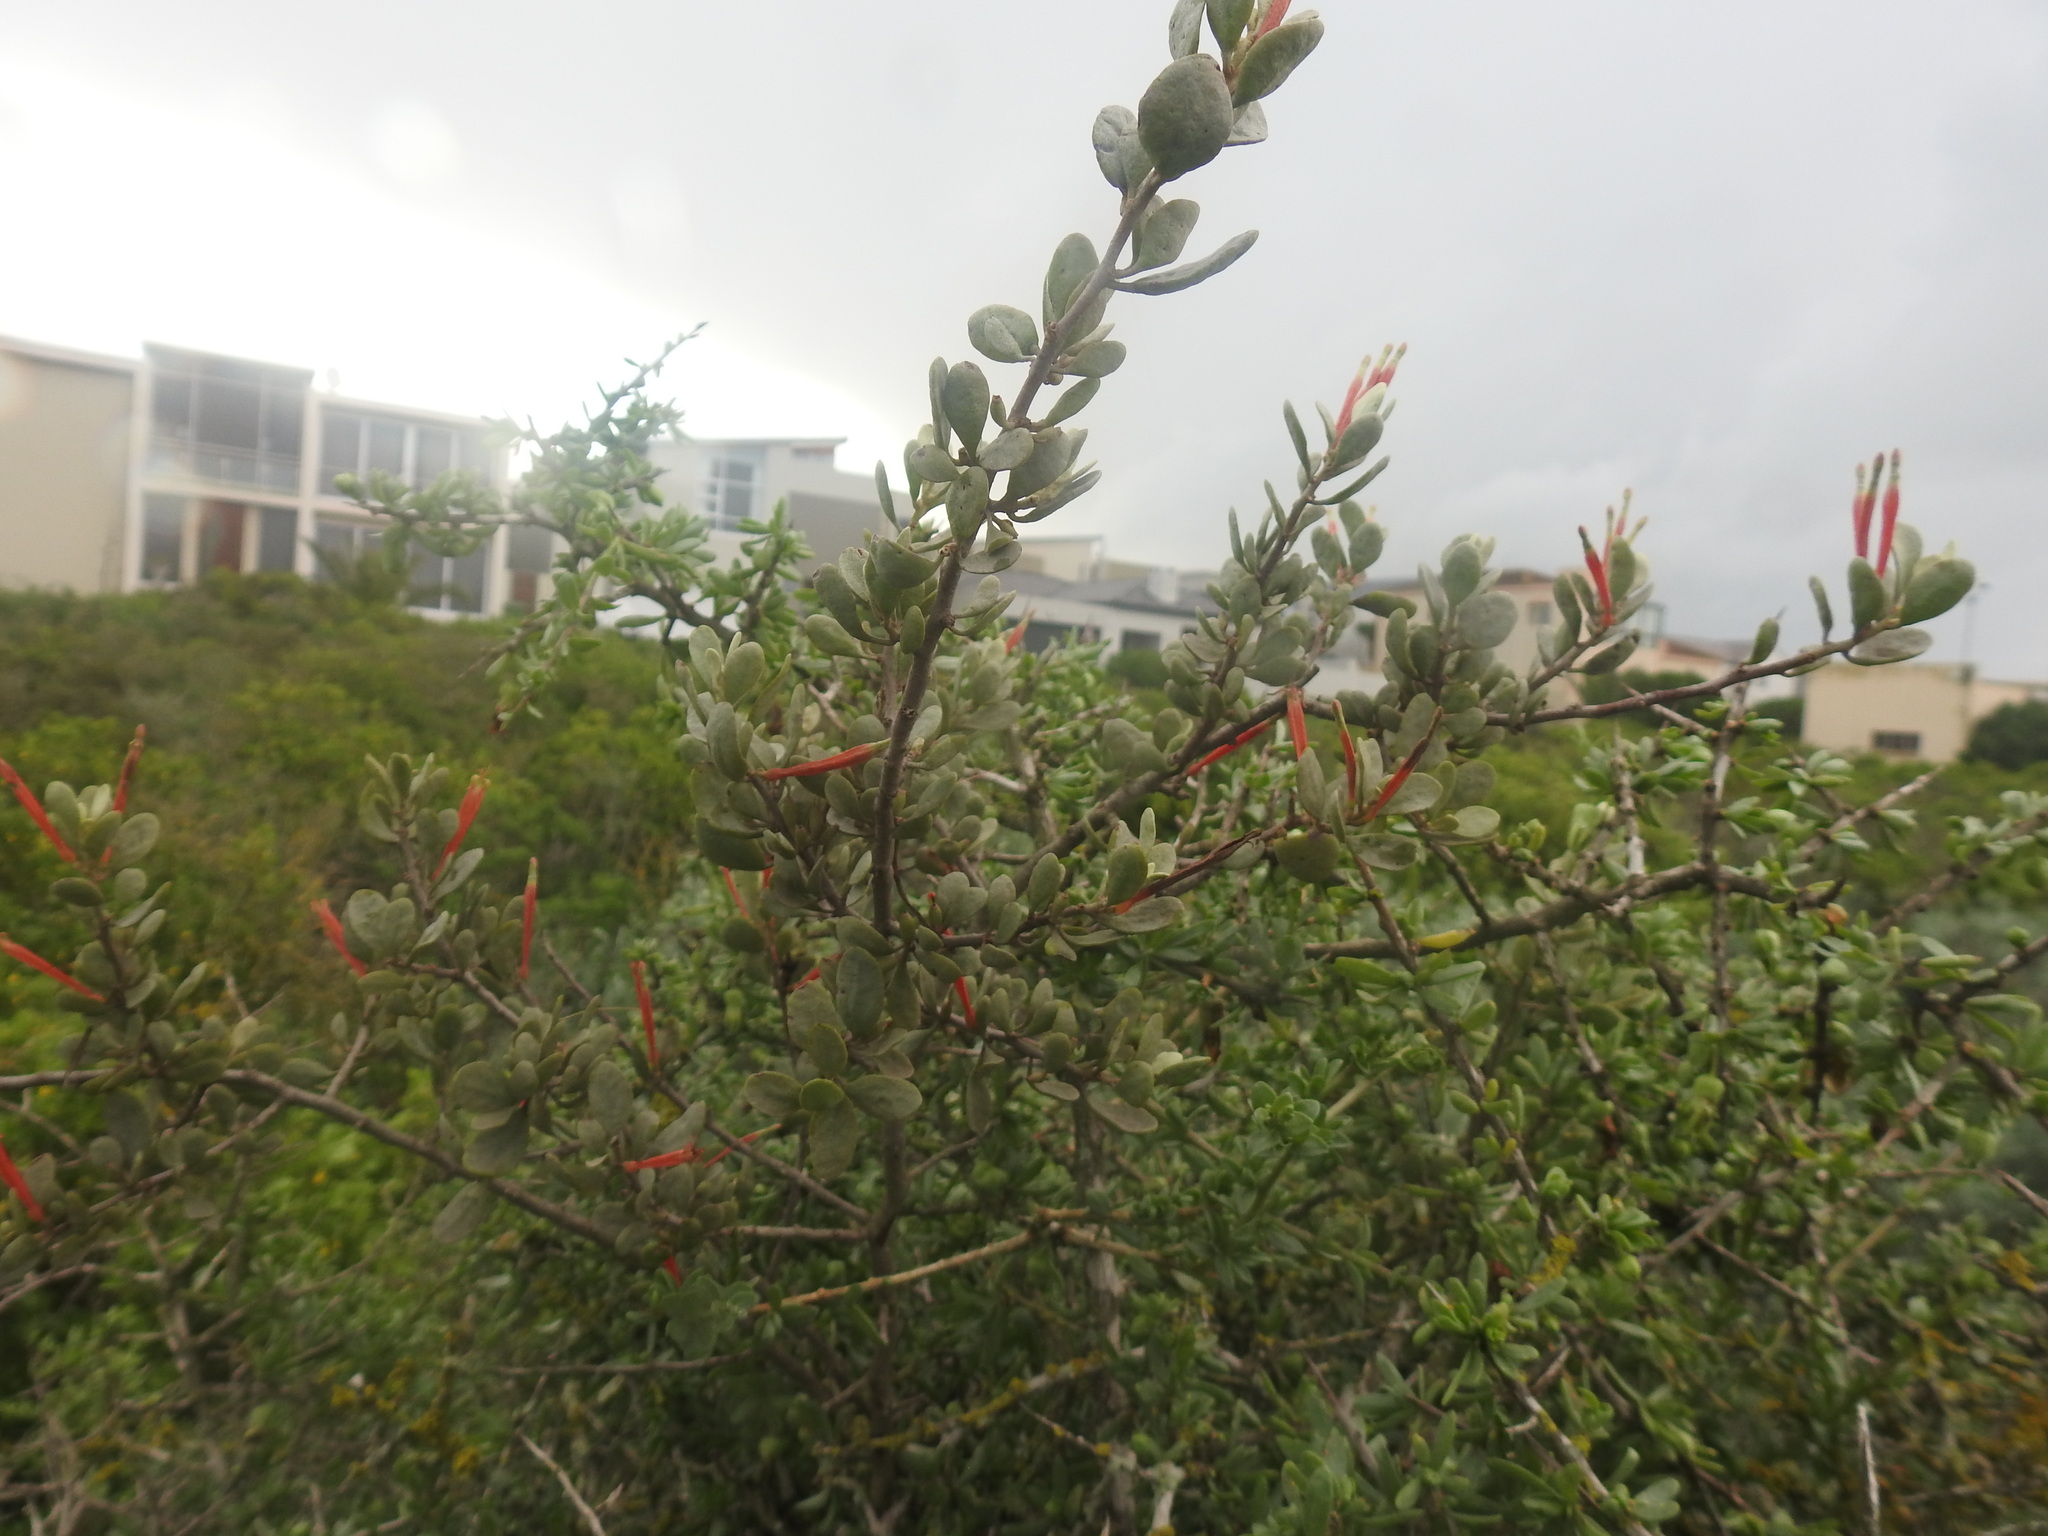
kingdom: Plantae
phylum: Tracheophyta
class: Magnoliopsida
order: Santalales
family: Loranthaceae
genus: Septulina
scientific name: Septulina glauca
